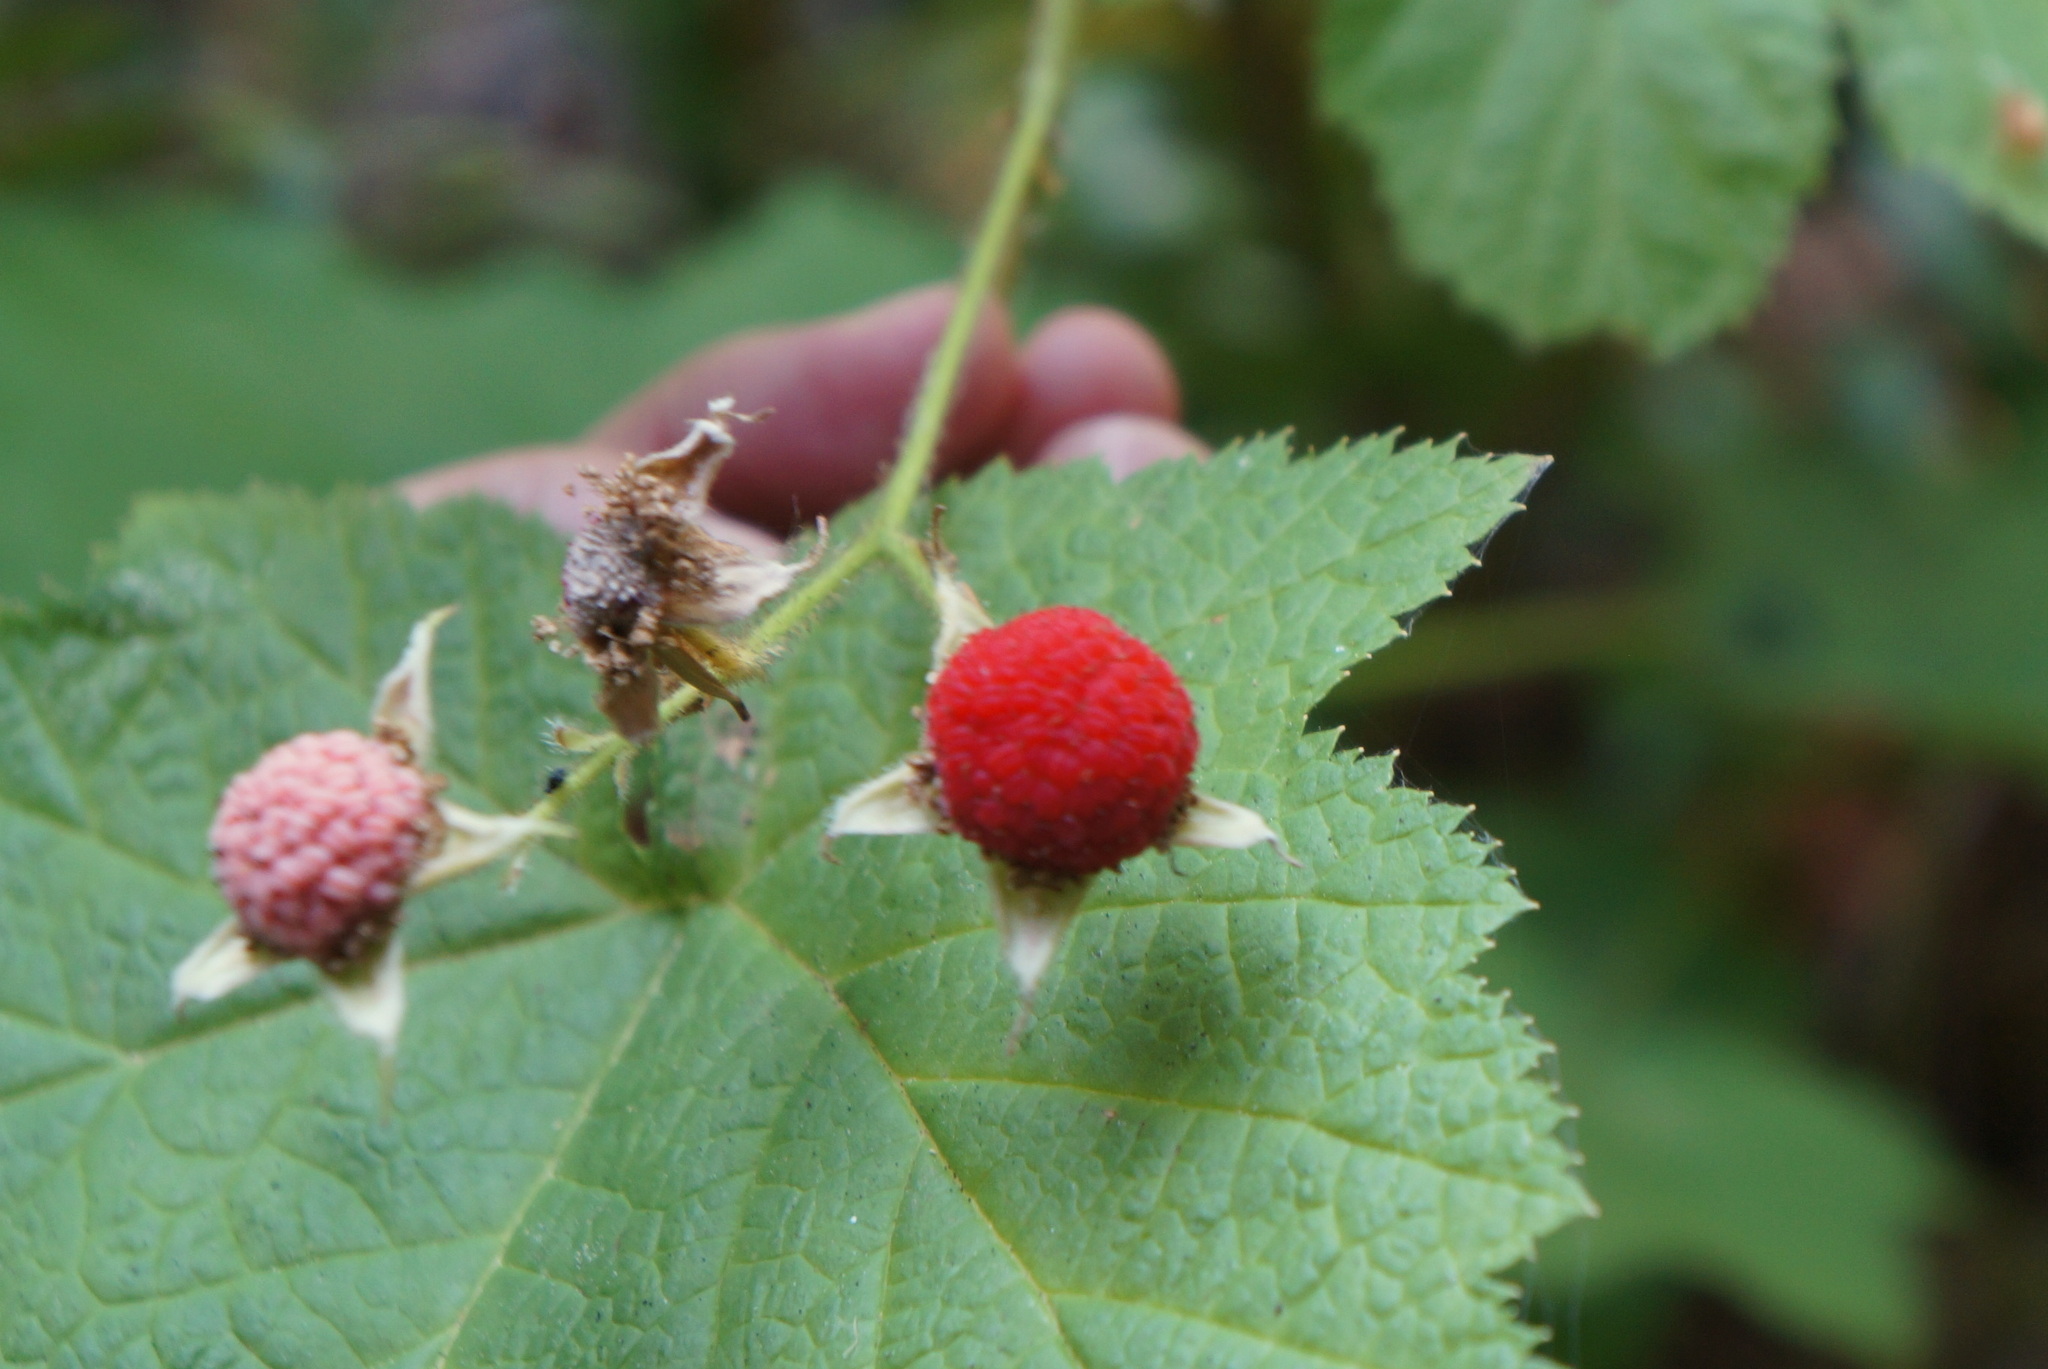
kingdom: Plantae
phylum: Tracheophyta
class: Magnoliopsida
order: Rosales
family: Rosaceae
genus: Rubus
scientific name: Rubus parviflorus
